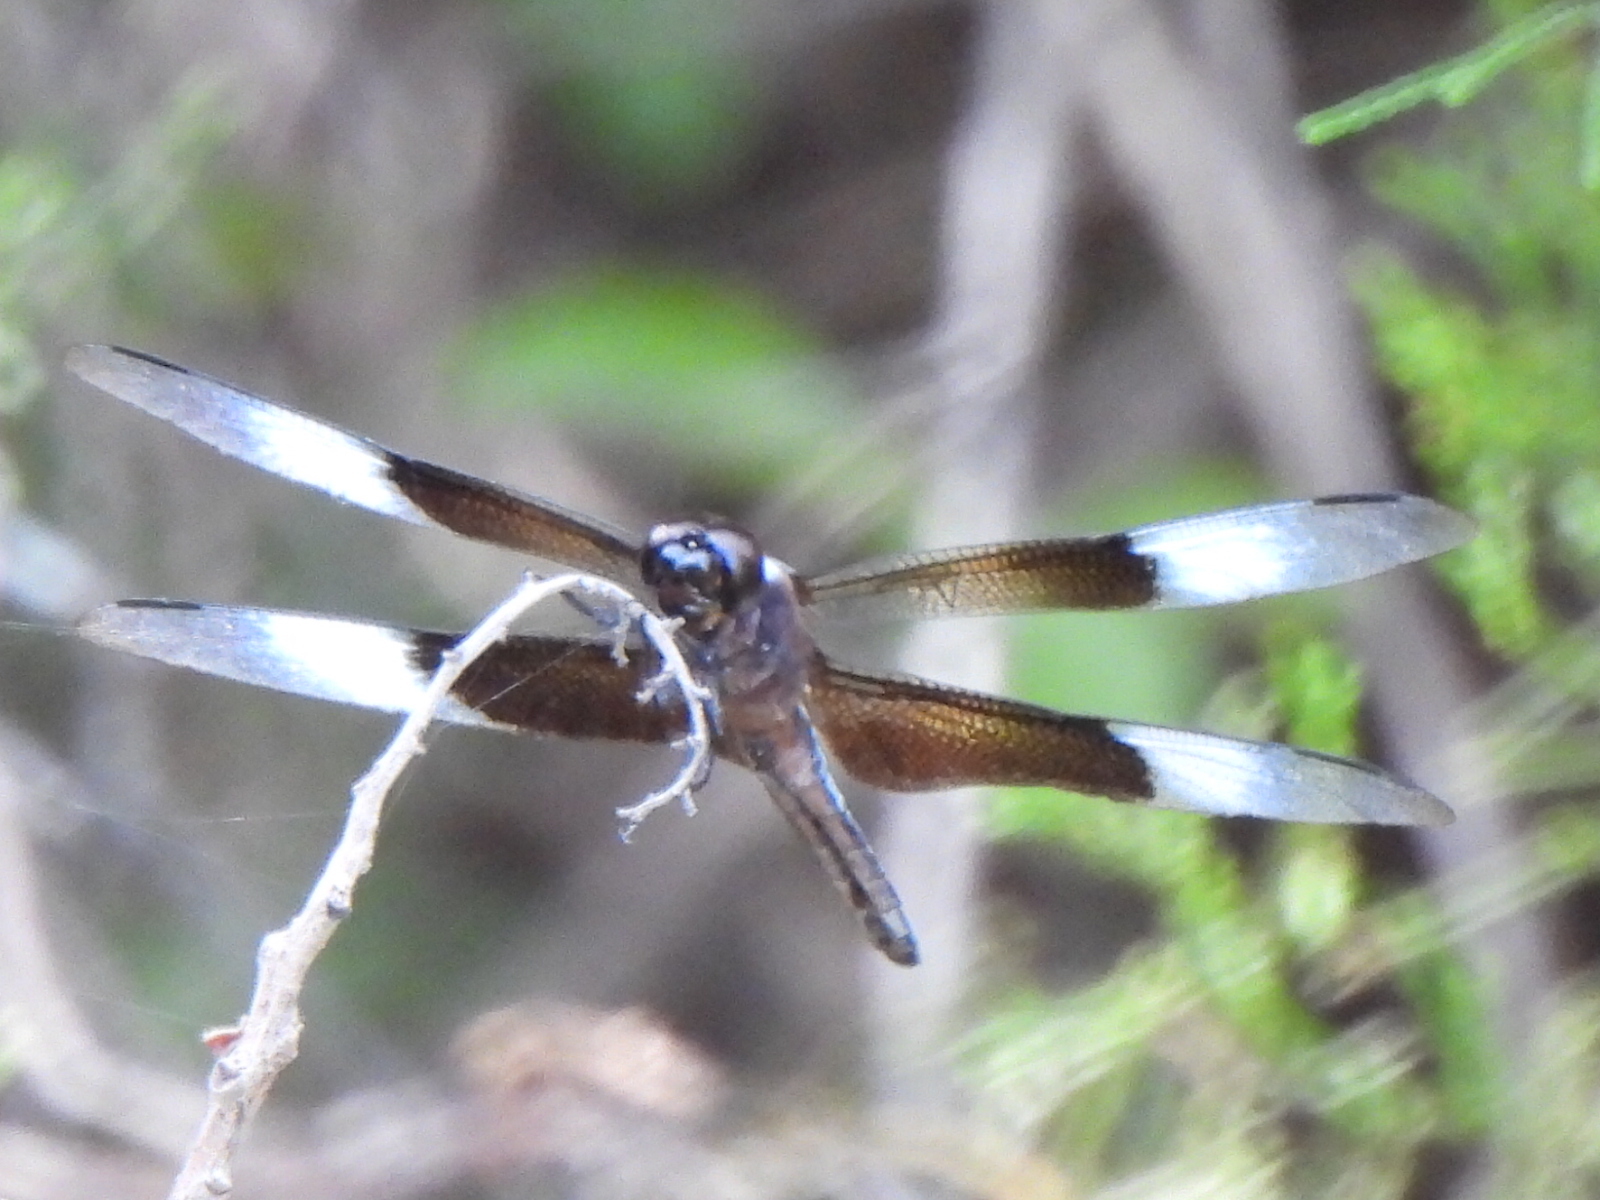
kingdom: Animalia
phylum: Arthropoda
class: Insecta
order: Odonata
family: Libellulidae
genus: Libellula
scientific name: Libellula luctuosa
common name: Widow skimmer
